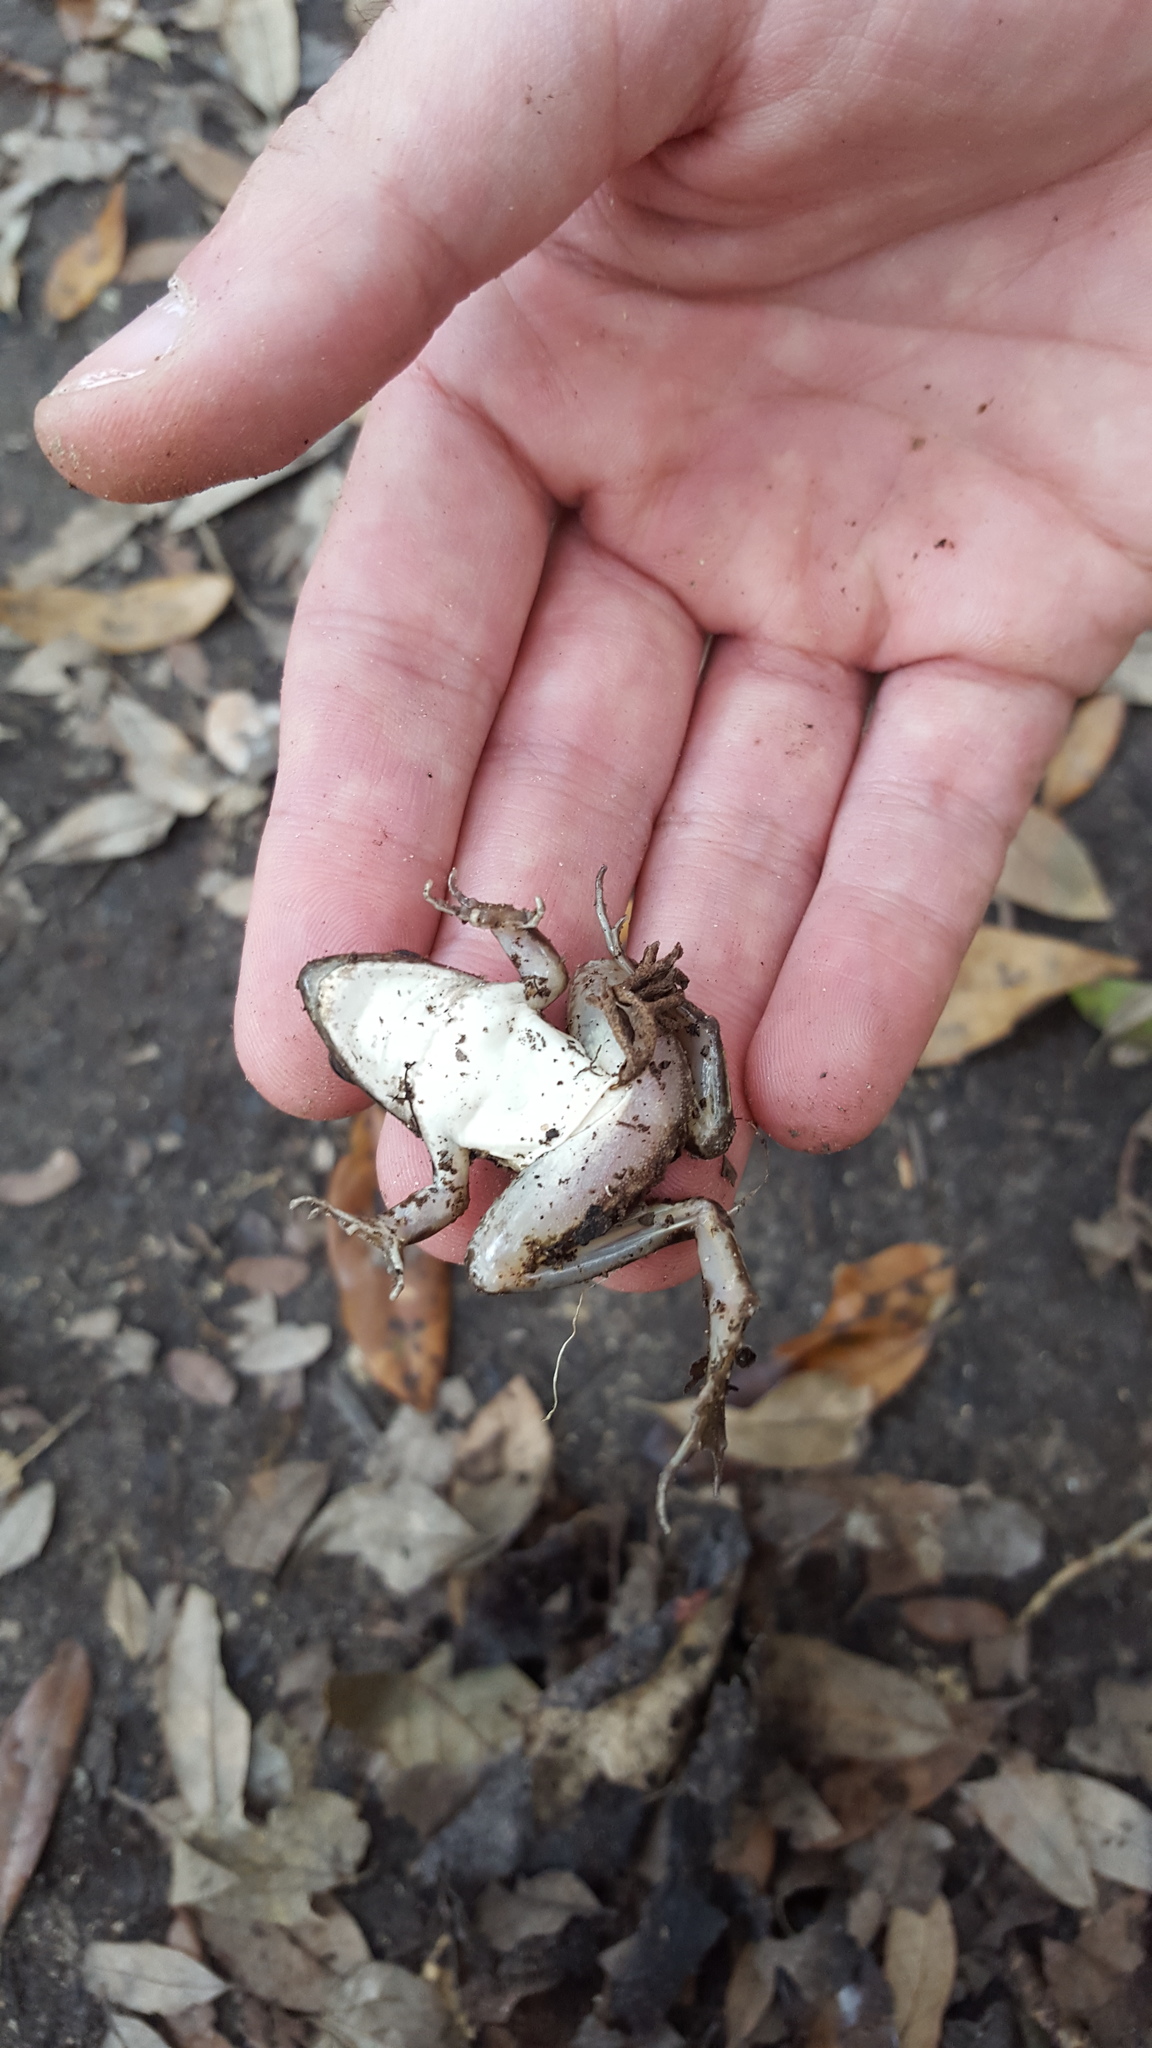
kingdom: Animalia
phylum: Chordata
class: Amphibia
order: Anura
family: Ranidae
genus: Lithobates
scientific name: Lithobates sphenocephalus
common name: Southern leopard frog
